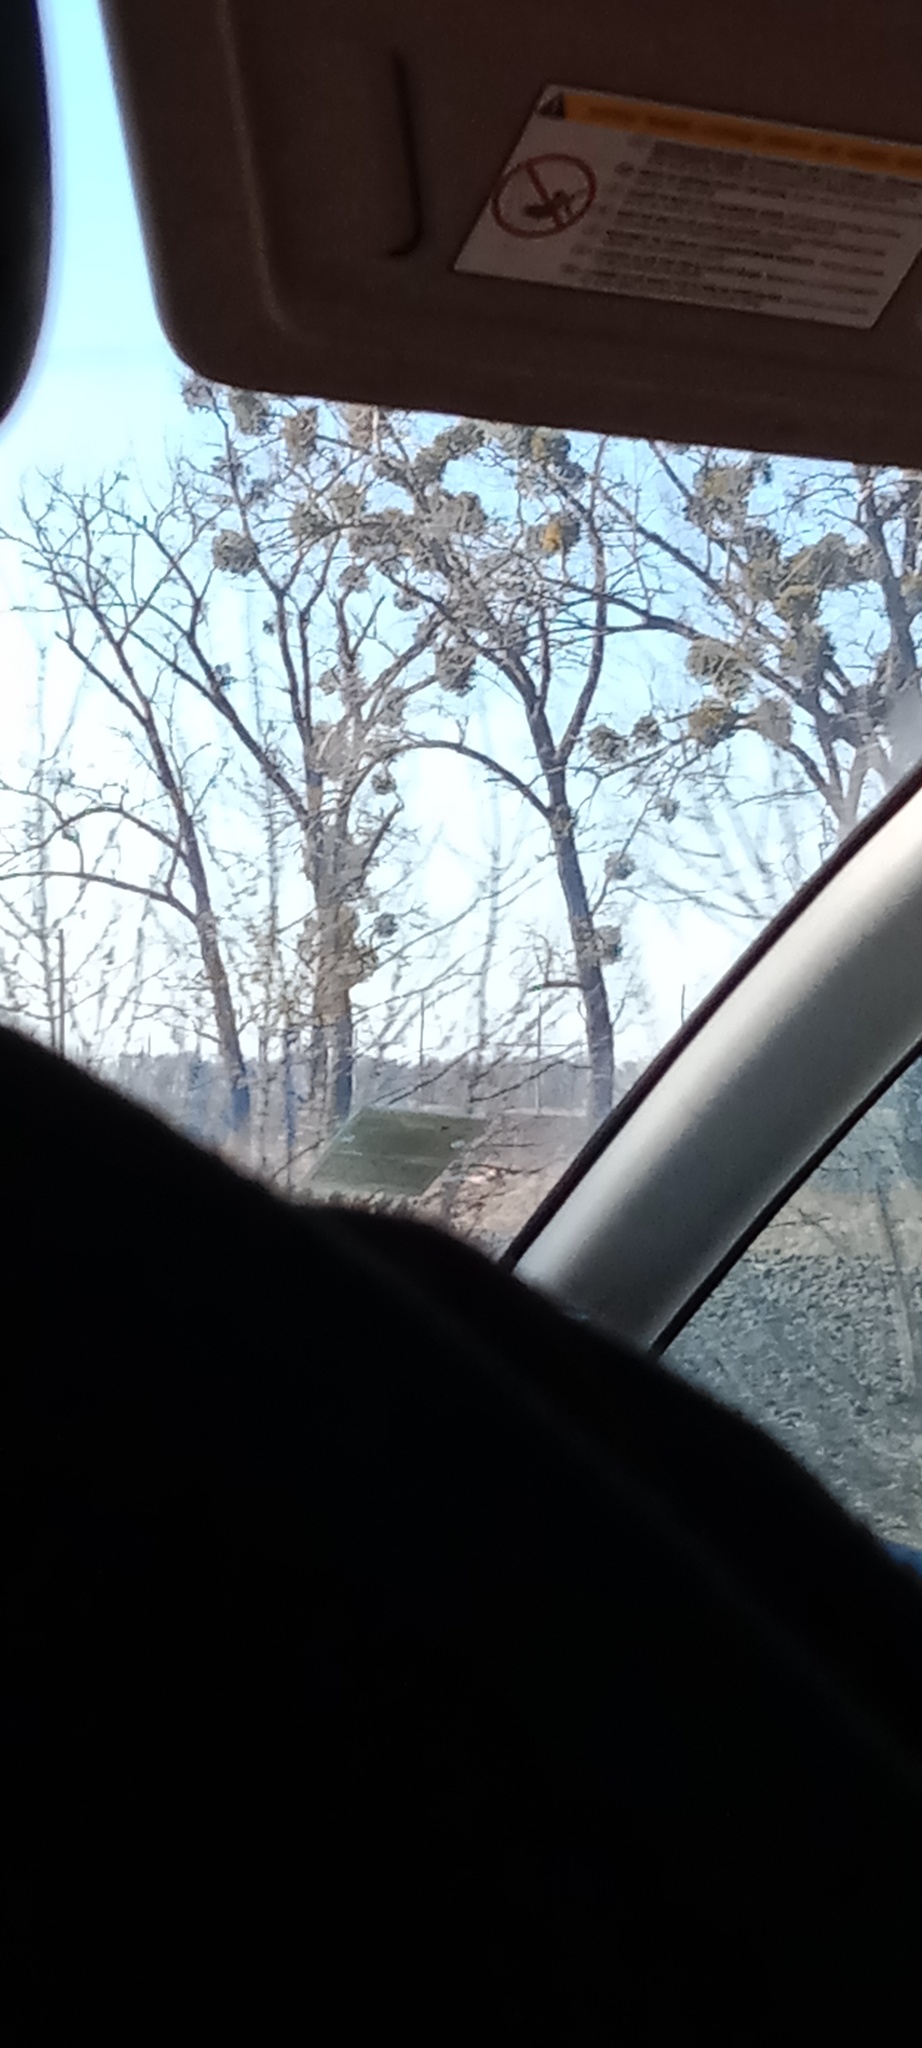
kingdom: Plantae
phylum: Tracheophyta
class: Magnoliopsida
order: Santalales
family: Viscaceae
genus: Viscum
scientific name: Viscum album
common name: Mistletoe
